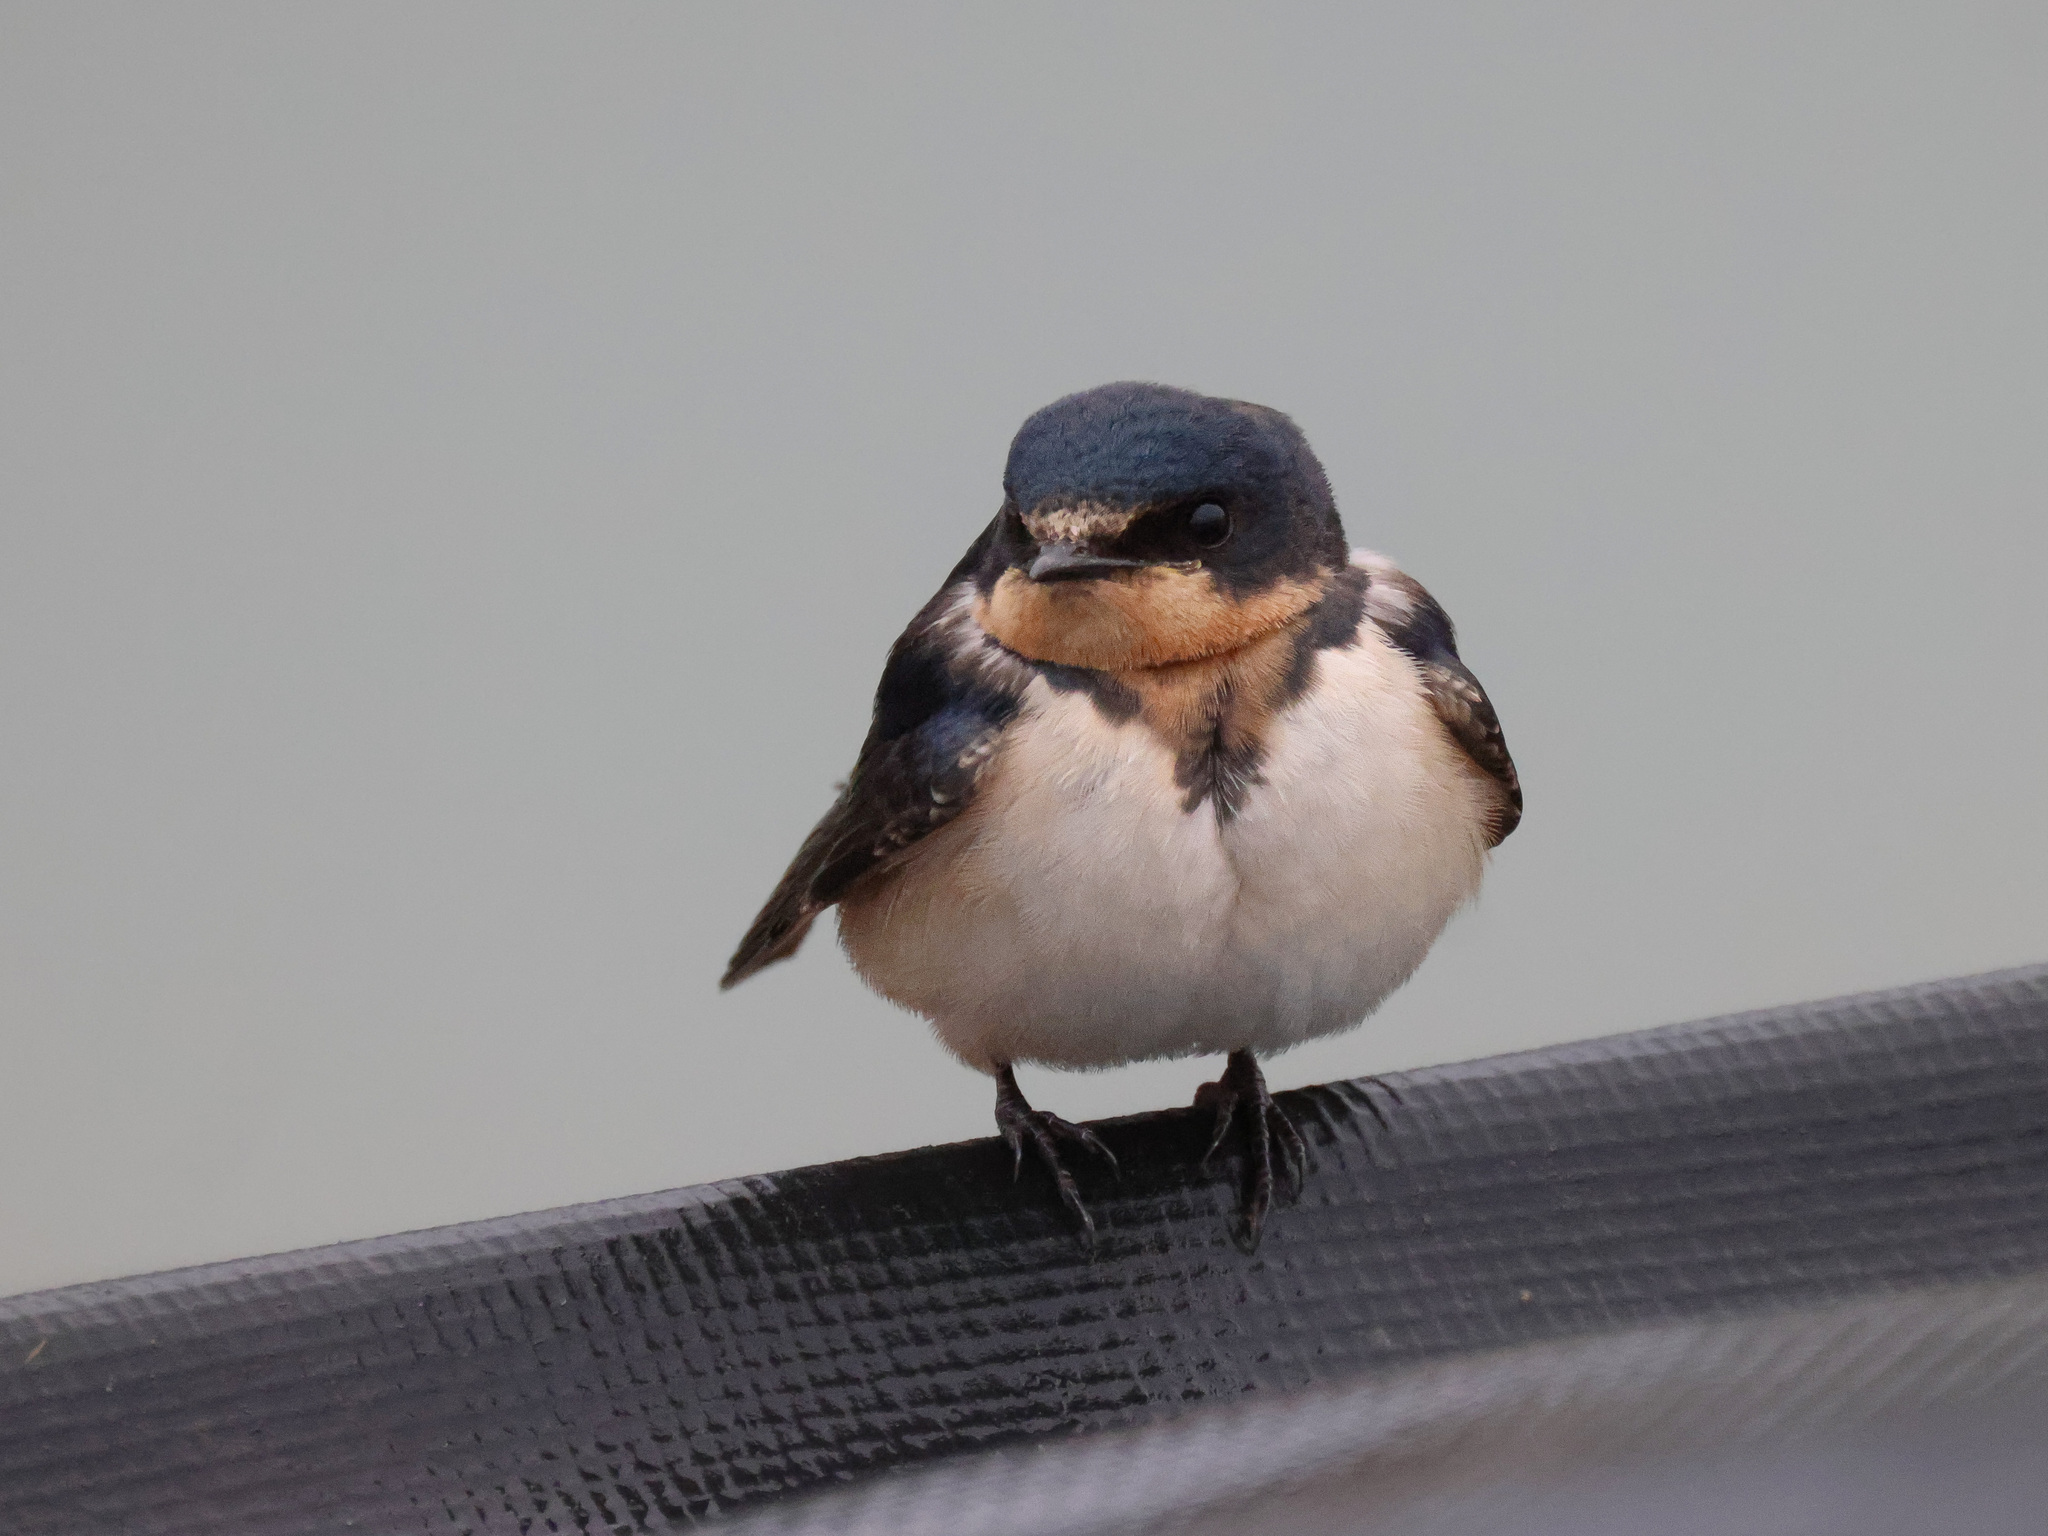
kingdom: Animalia
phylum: Chordata
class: Aves
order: Passeriformes
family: Hirundinidae
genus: Hirundo
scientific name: Hirundo rustica
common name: Barn swallow
